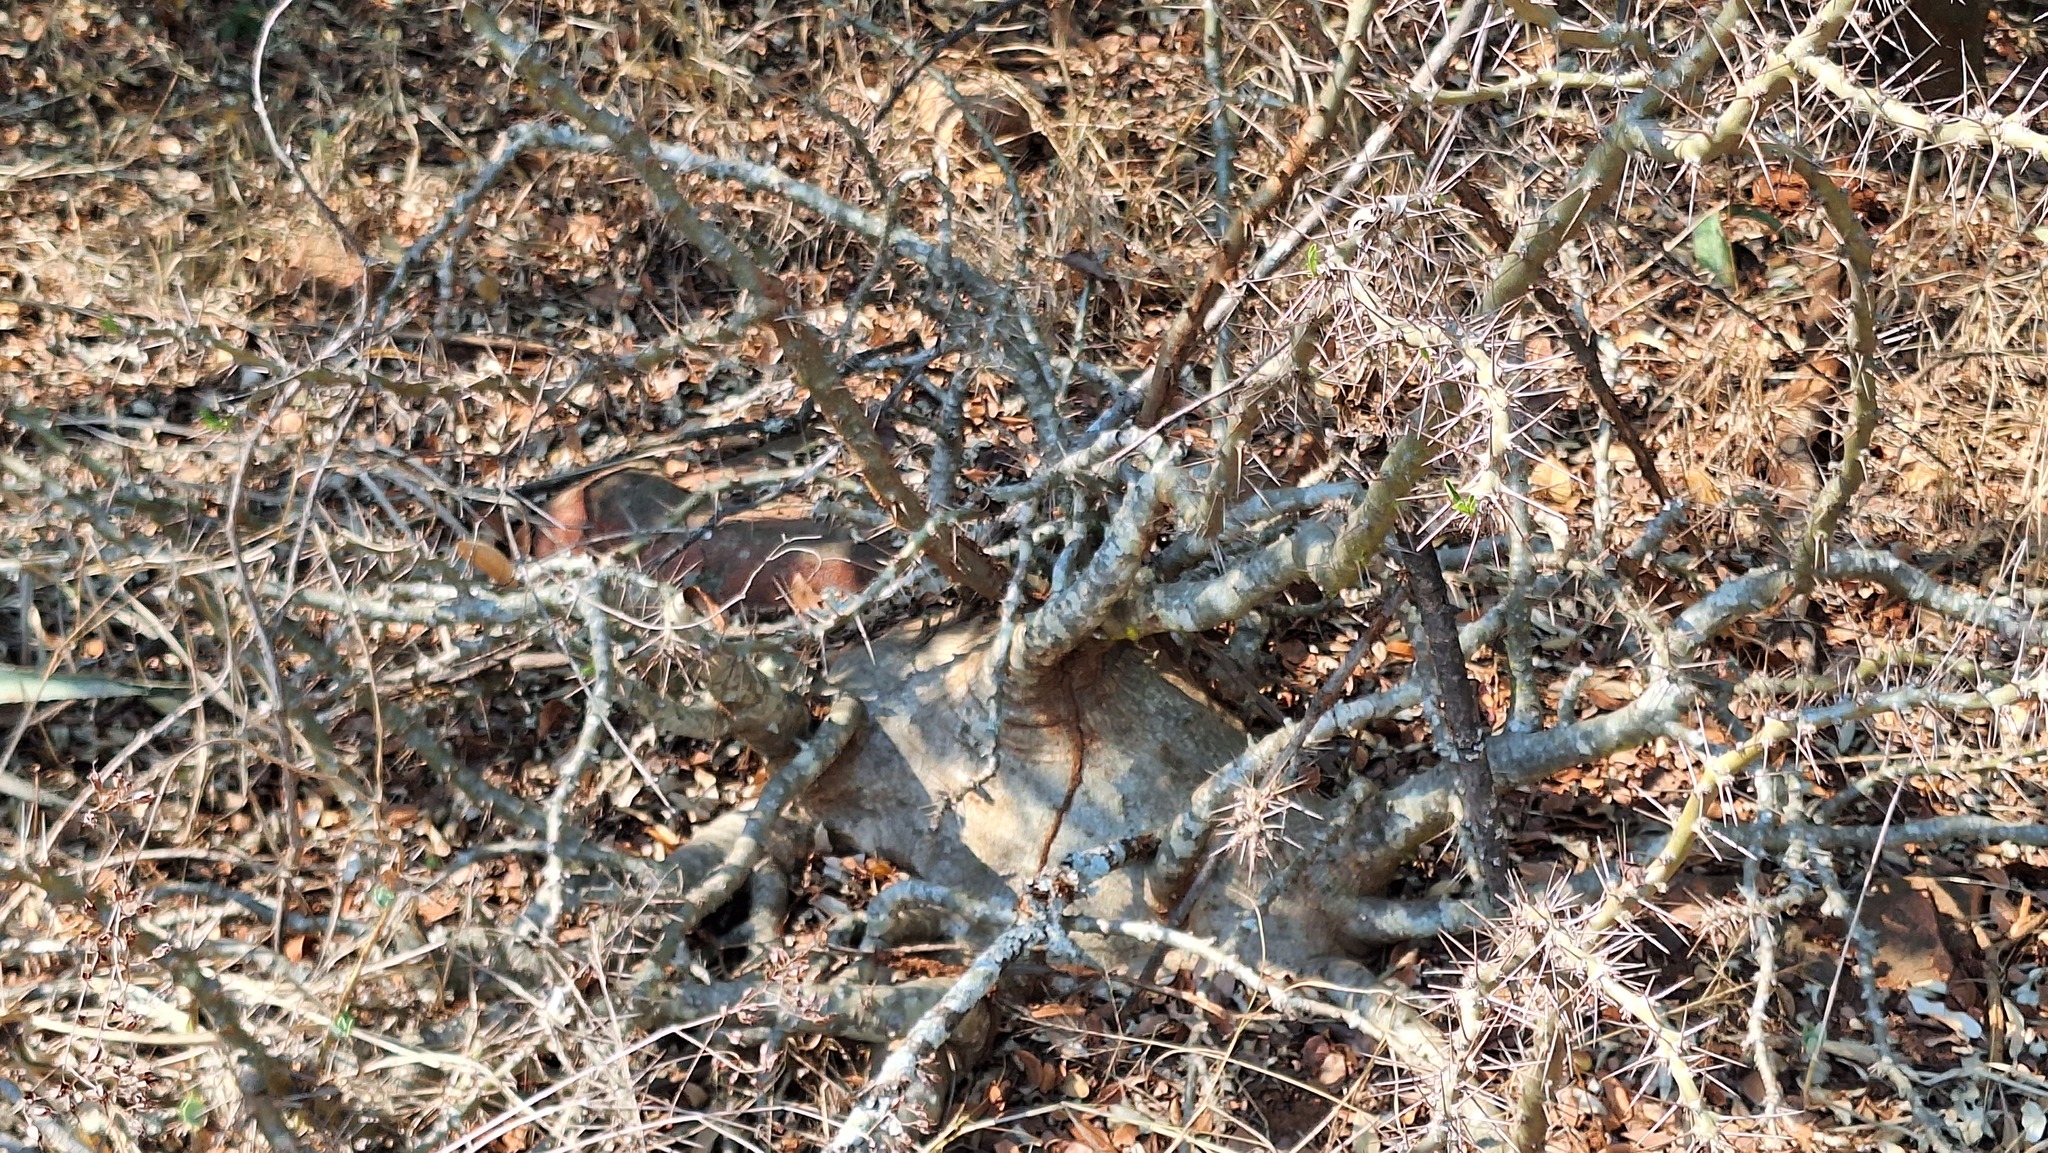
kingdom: Plantae
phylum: Tracheophyta
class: Magnoliopsida
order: Gentianales
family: Apocynaceae
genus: Pachypodium
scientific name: Pachypodium saundersii
